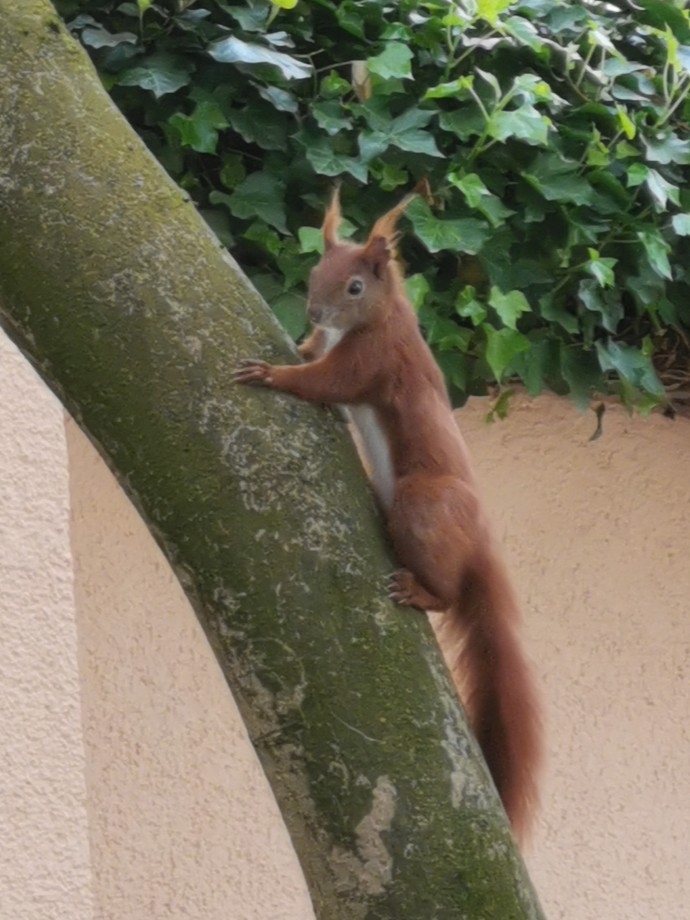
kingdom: Animalia
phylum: Chordata
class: Mammalia
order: Rodentia
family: Sciuridae
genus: Sciurus
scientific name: Sciurus vulgaris
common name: Eurasian red squirrel
